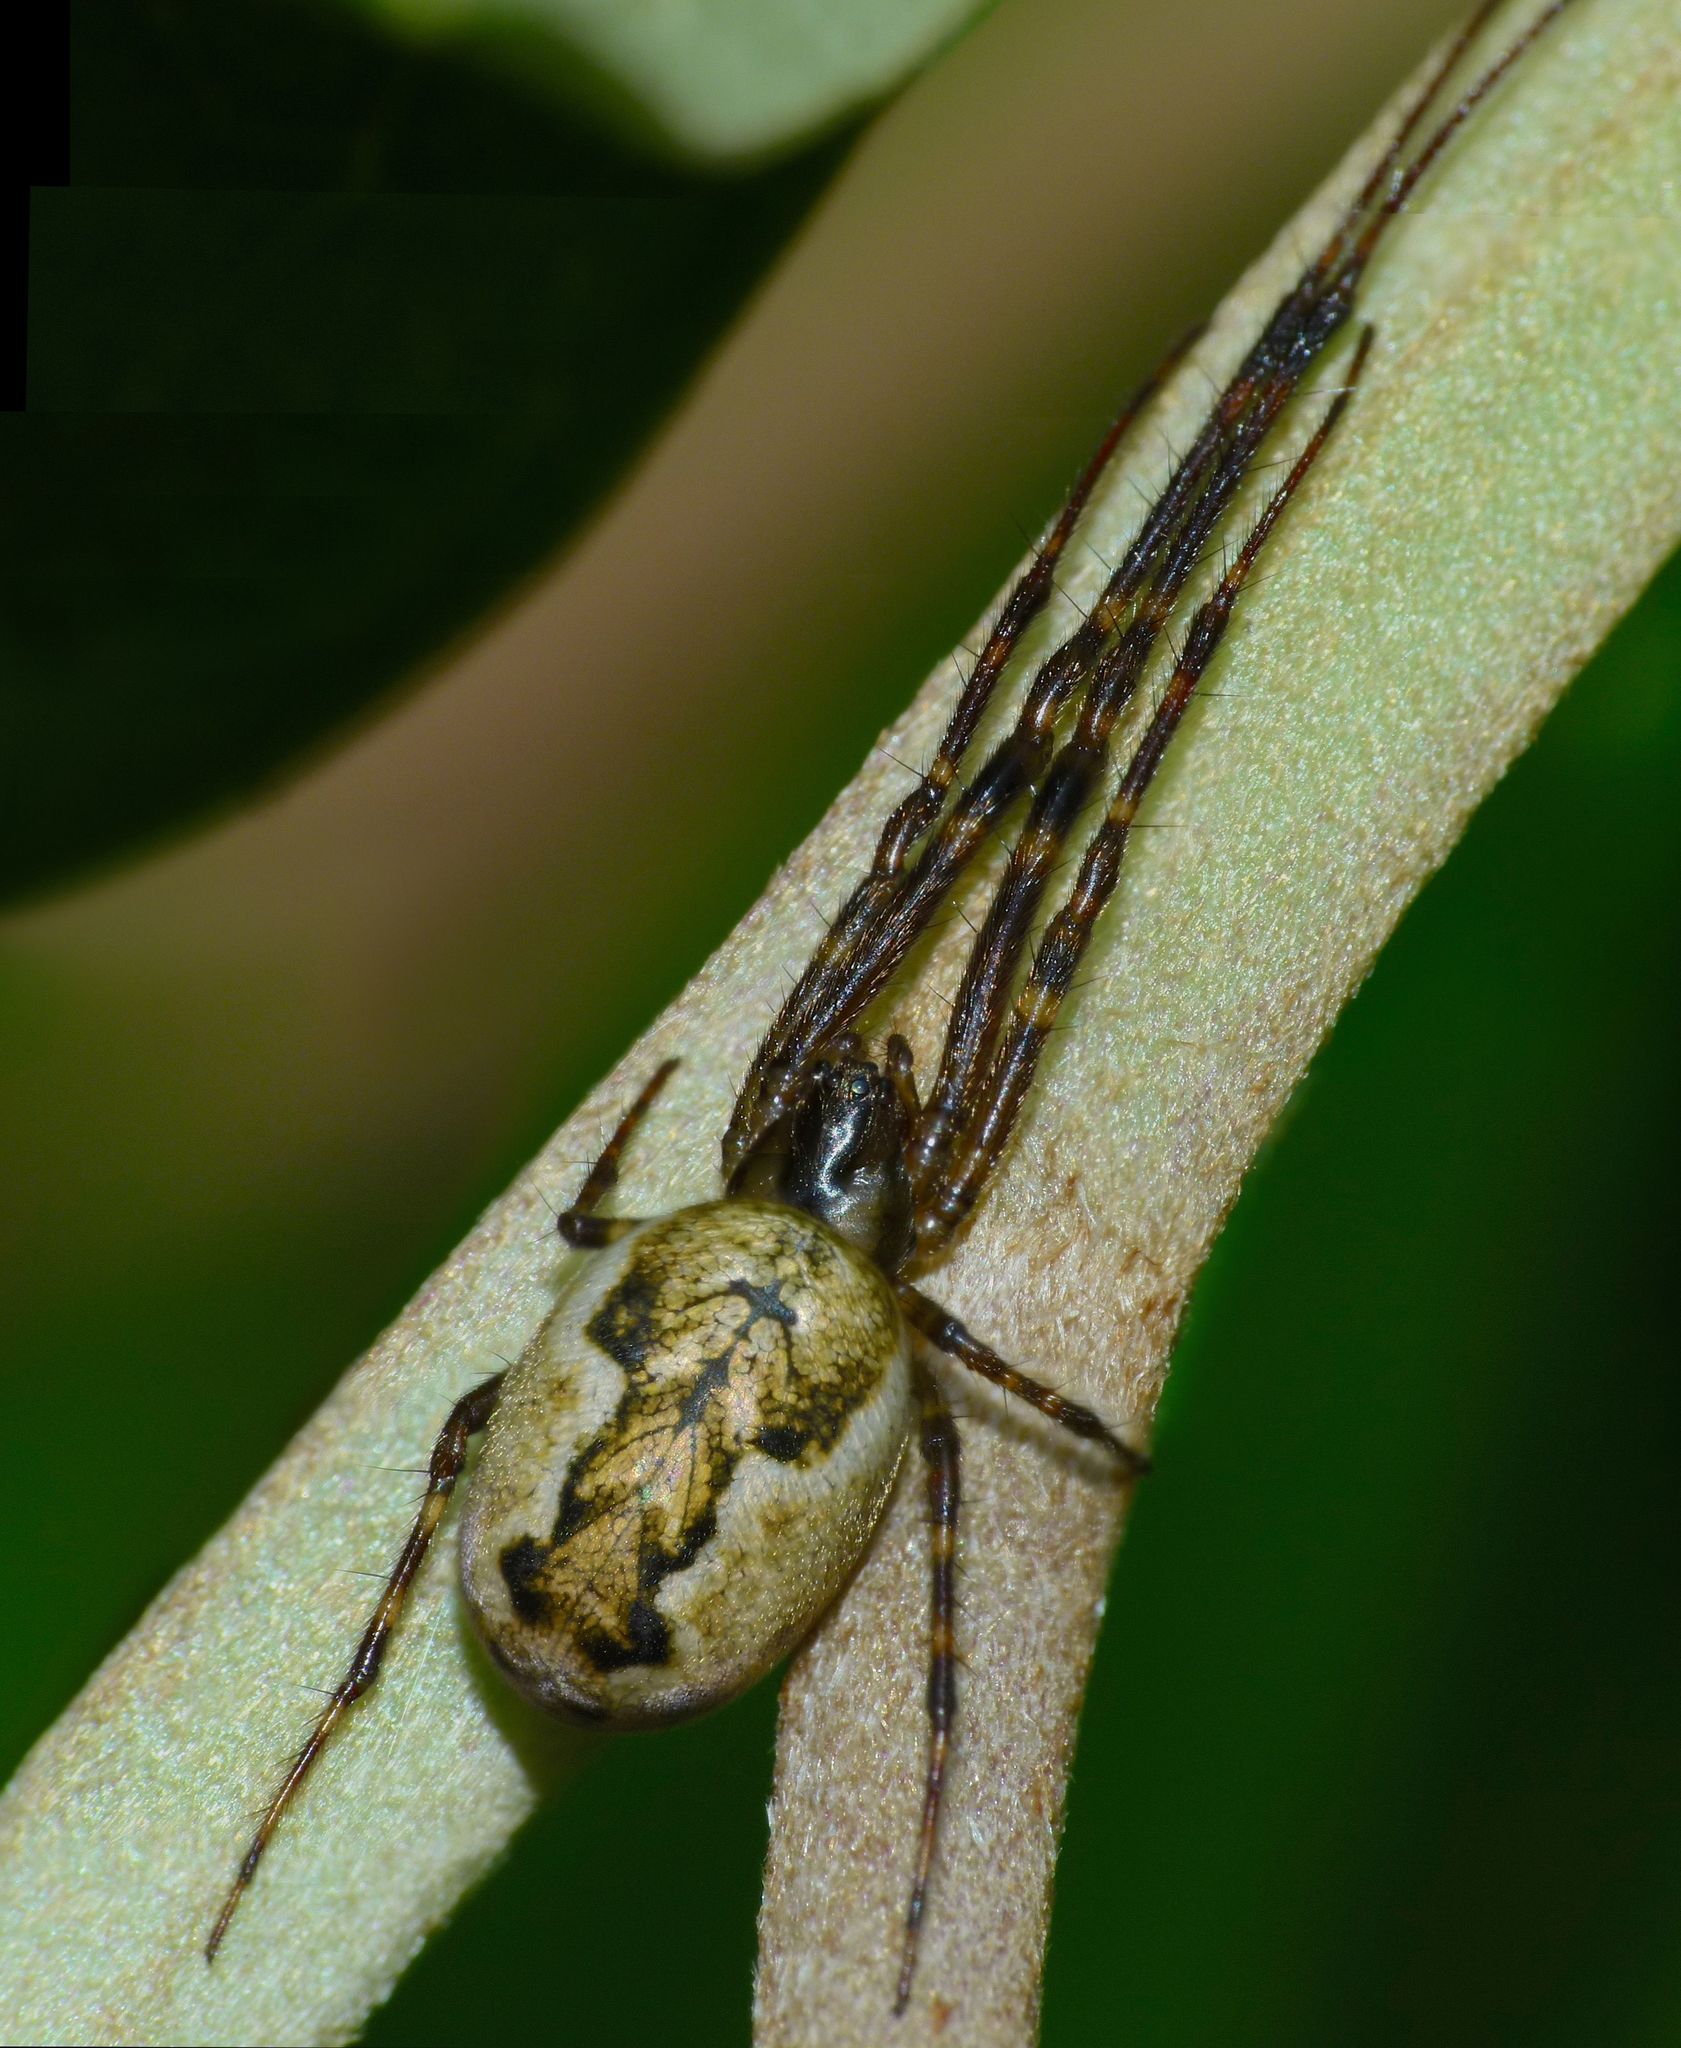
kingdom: Animalia
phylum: Arthropoda
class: Arachnida
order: Araneae
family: Tetragnathidae
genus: Nanometa
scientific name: Nanometa lagenifera
